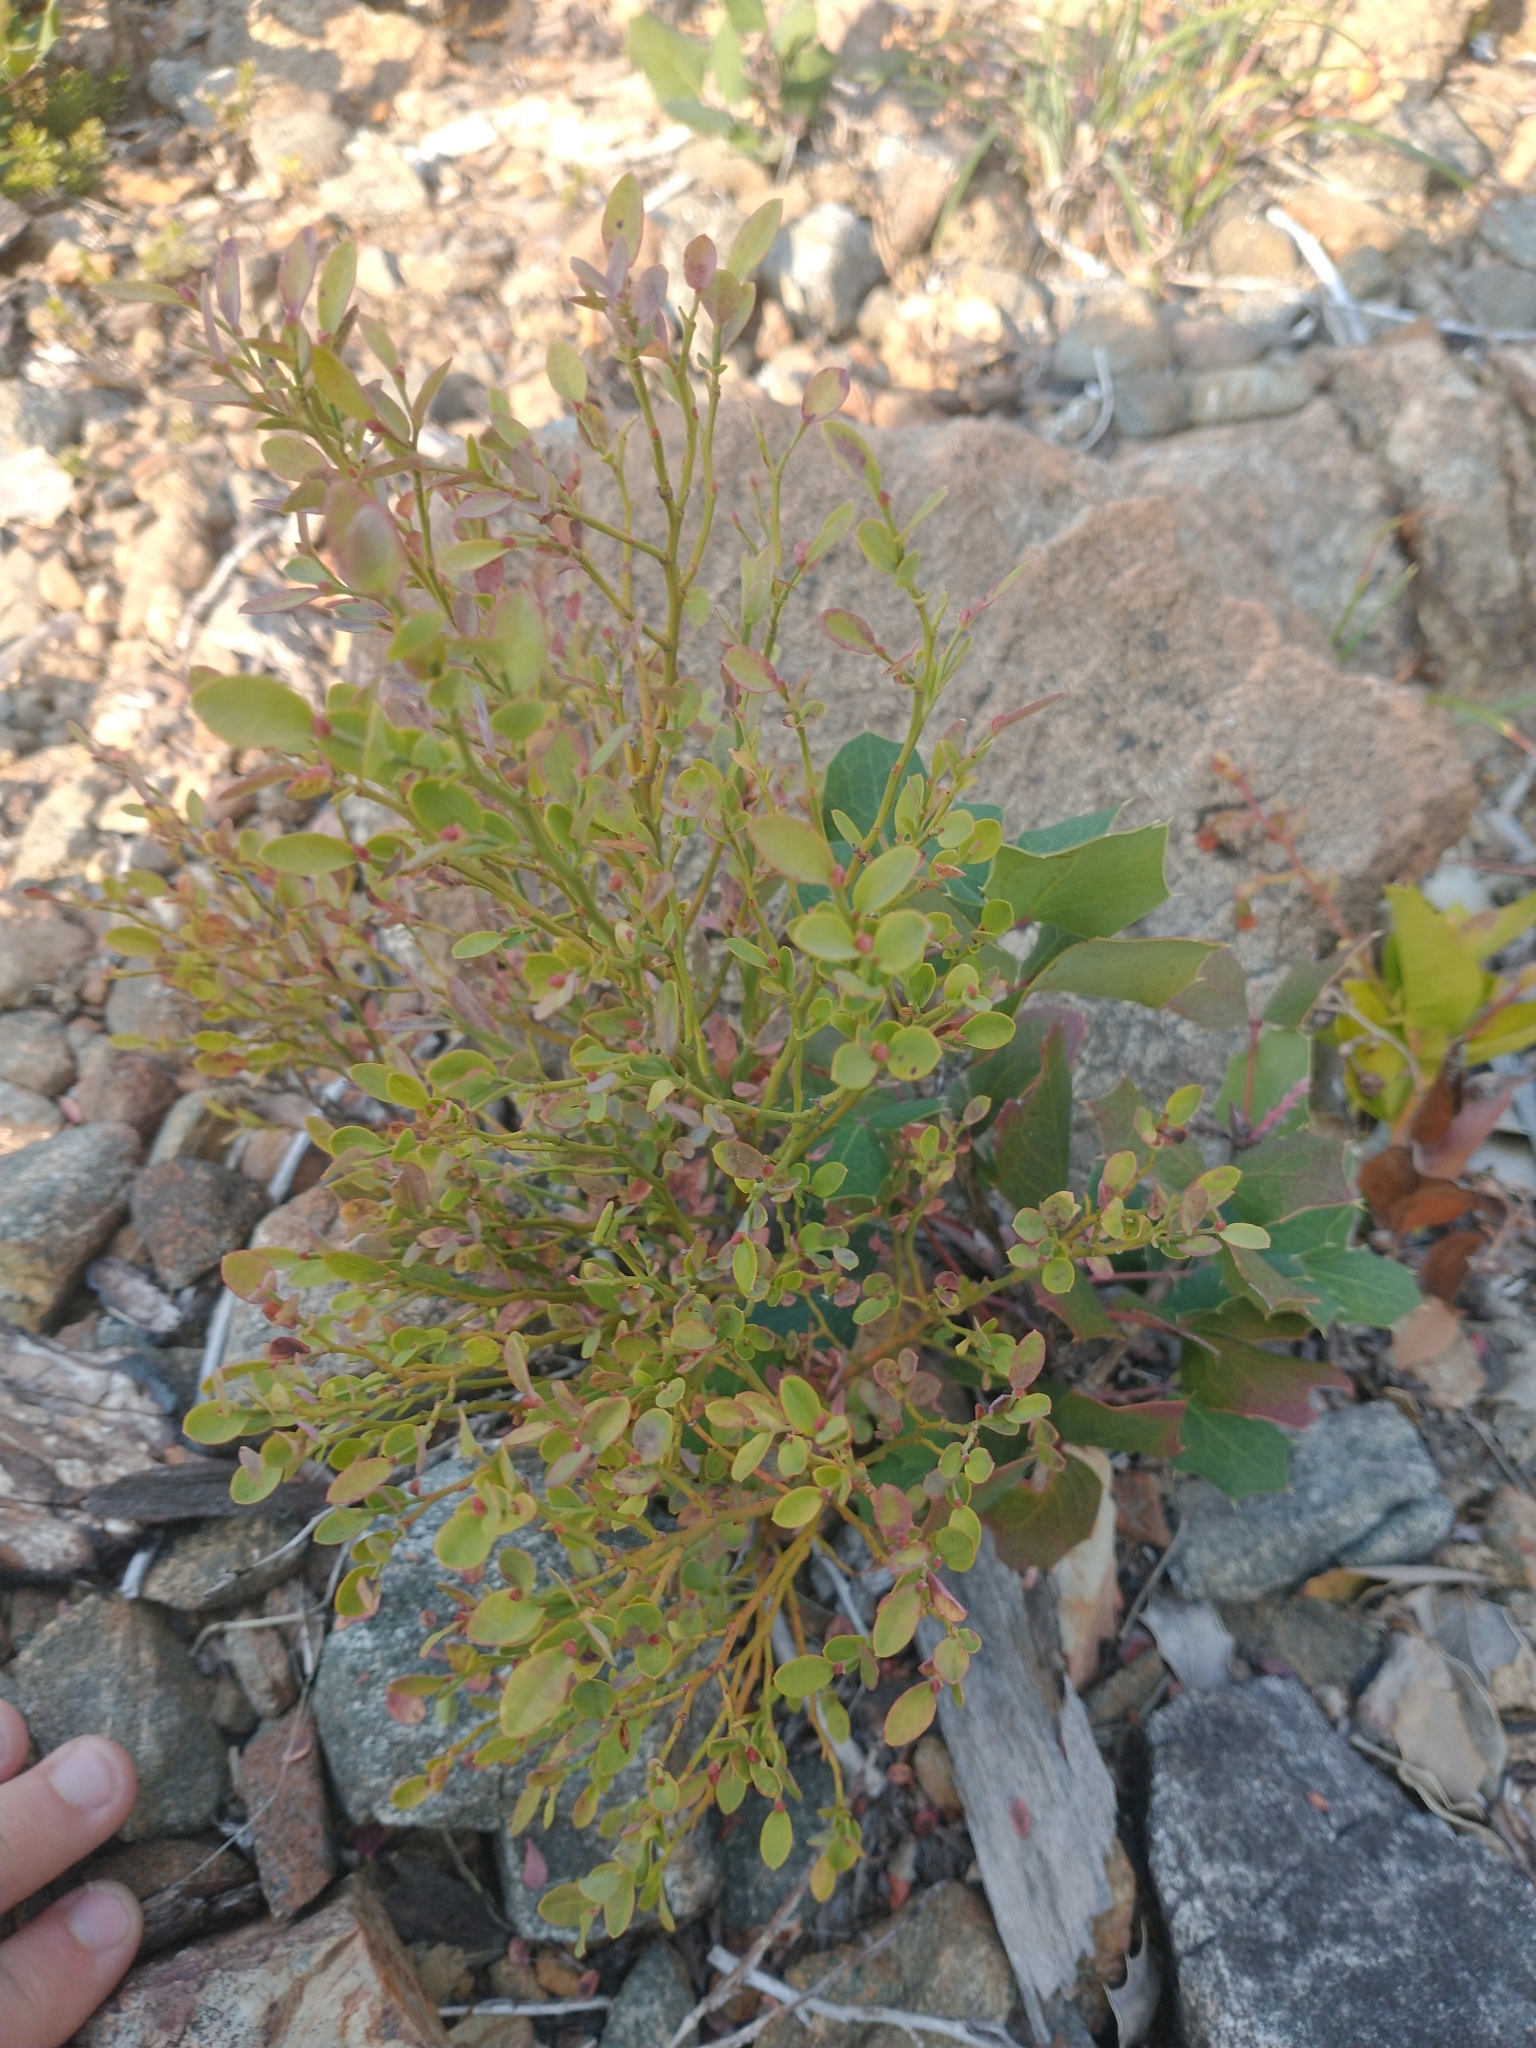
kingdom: Plantae
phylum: Tracheophyta
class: Magnoliopsida
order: Ranunculales
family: Berberidaceae
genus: Mahonia
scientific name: Mahonia repens
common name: Creeping oregon-grape
